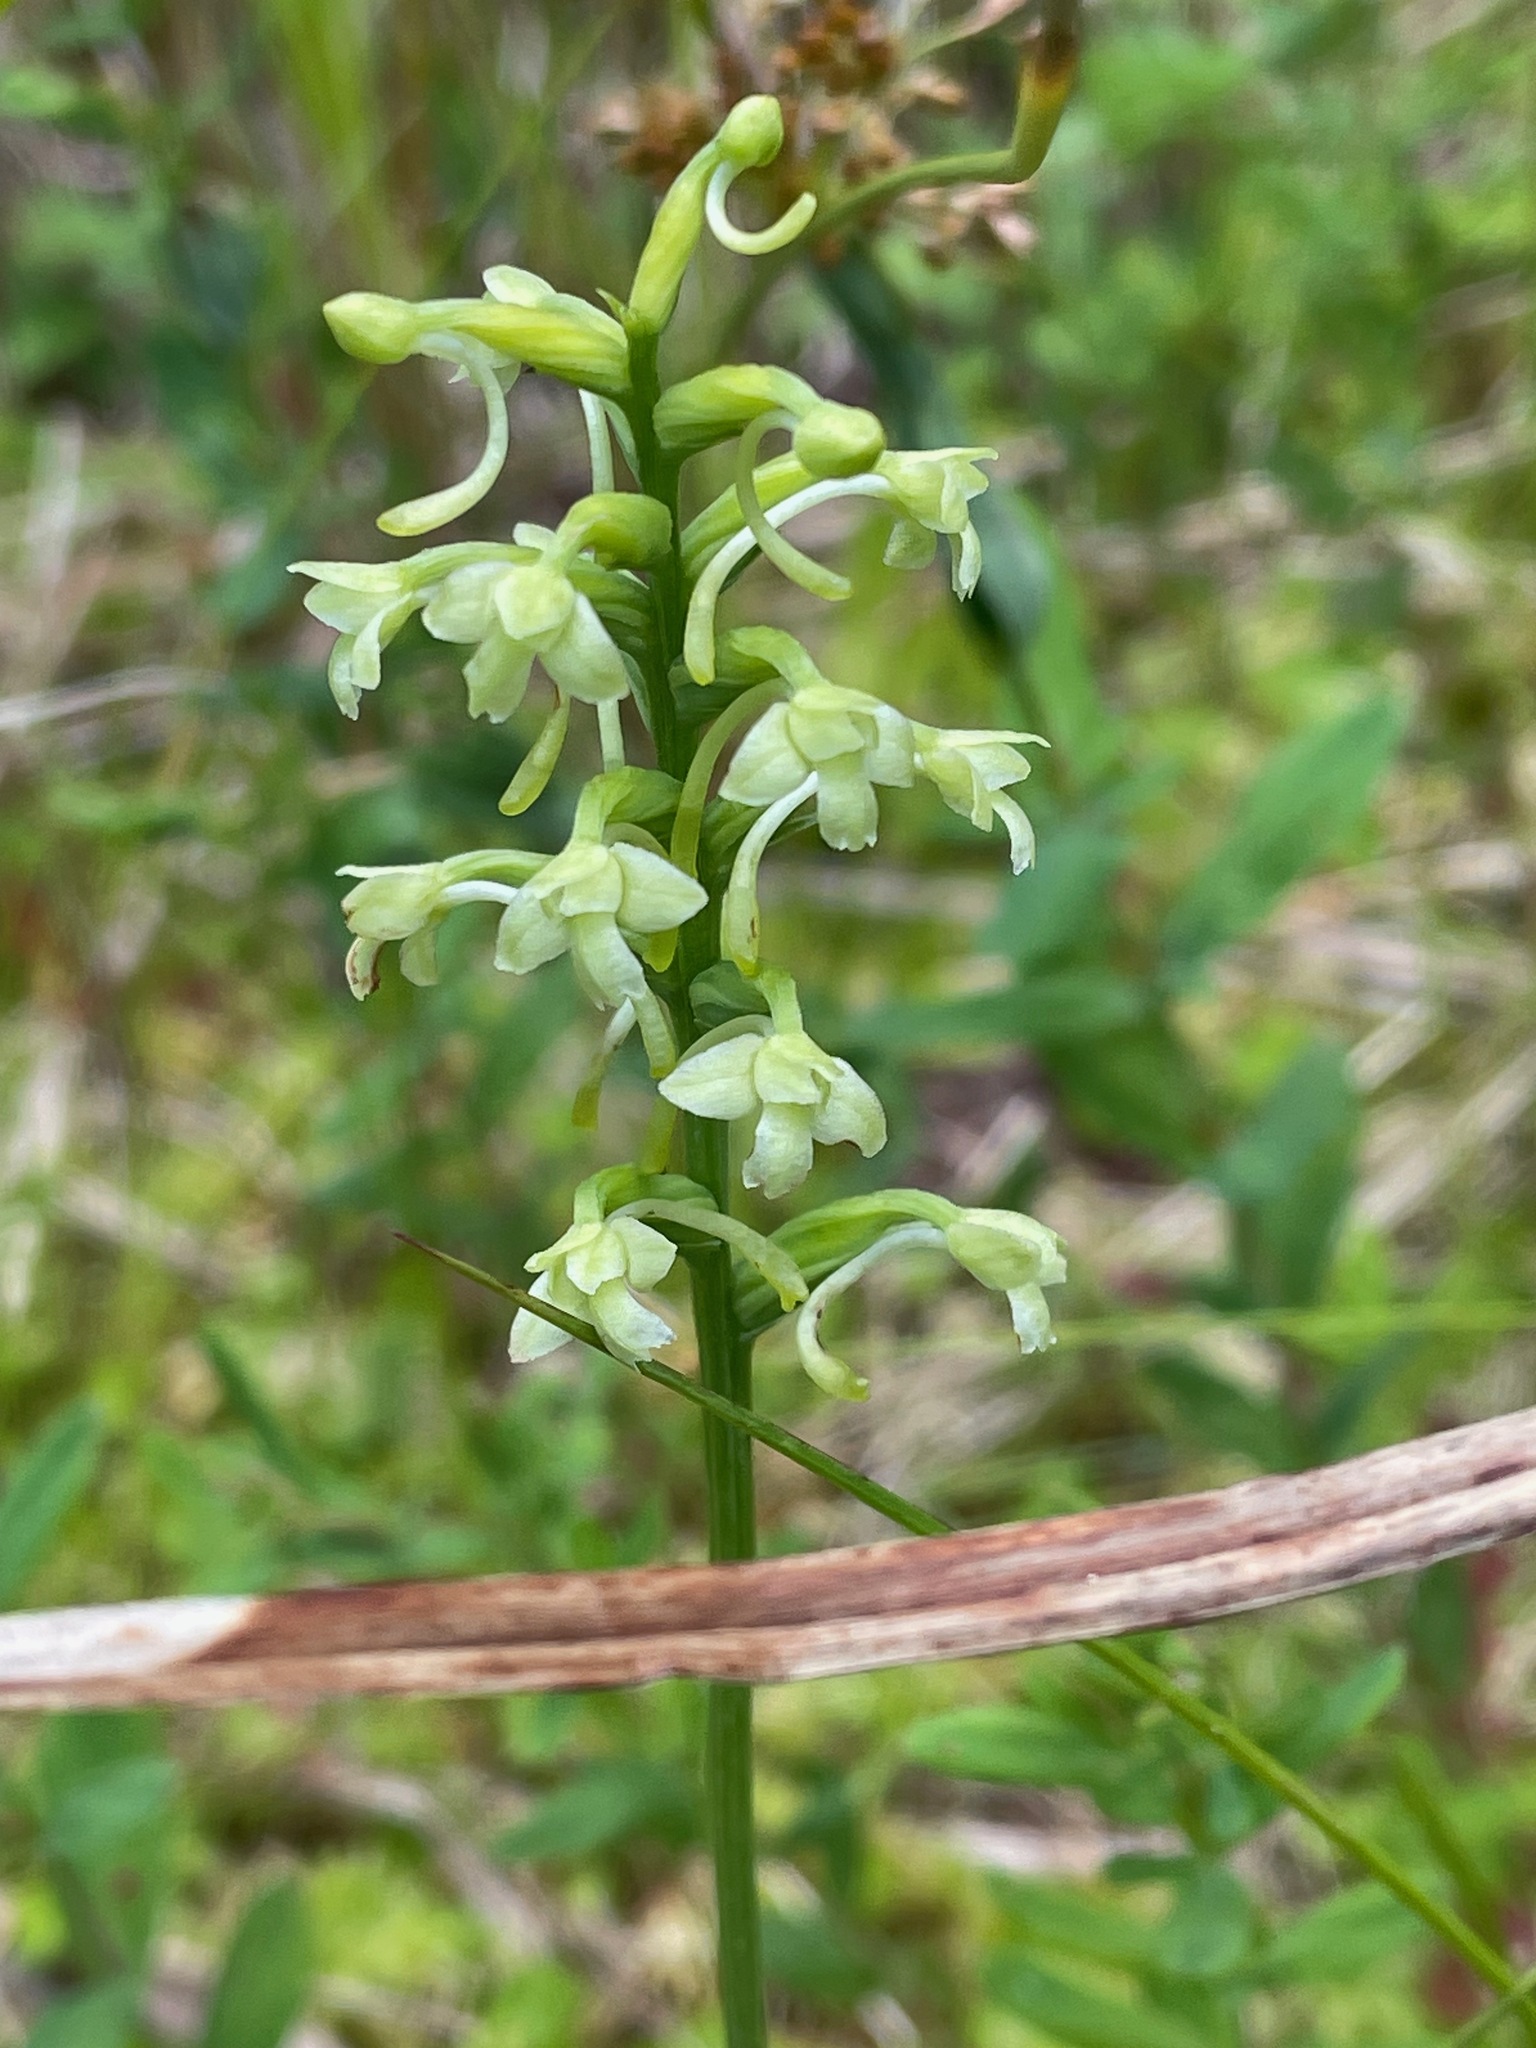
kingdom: Plantae
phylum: Tracheophyta
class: Liliopsida
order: Asparagales
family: Orchidaceae
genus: Platanthera
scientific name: Platanthera clavellata
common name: Club-spur orchid
